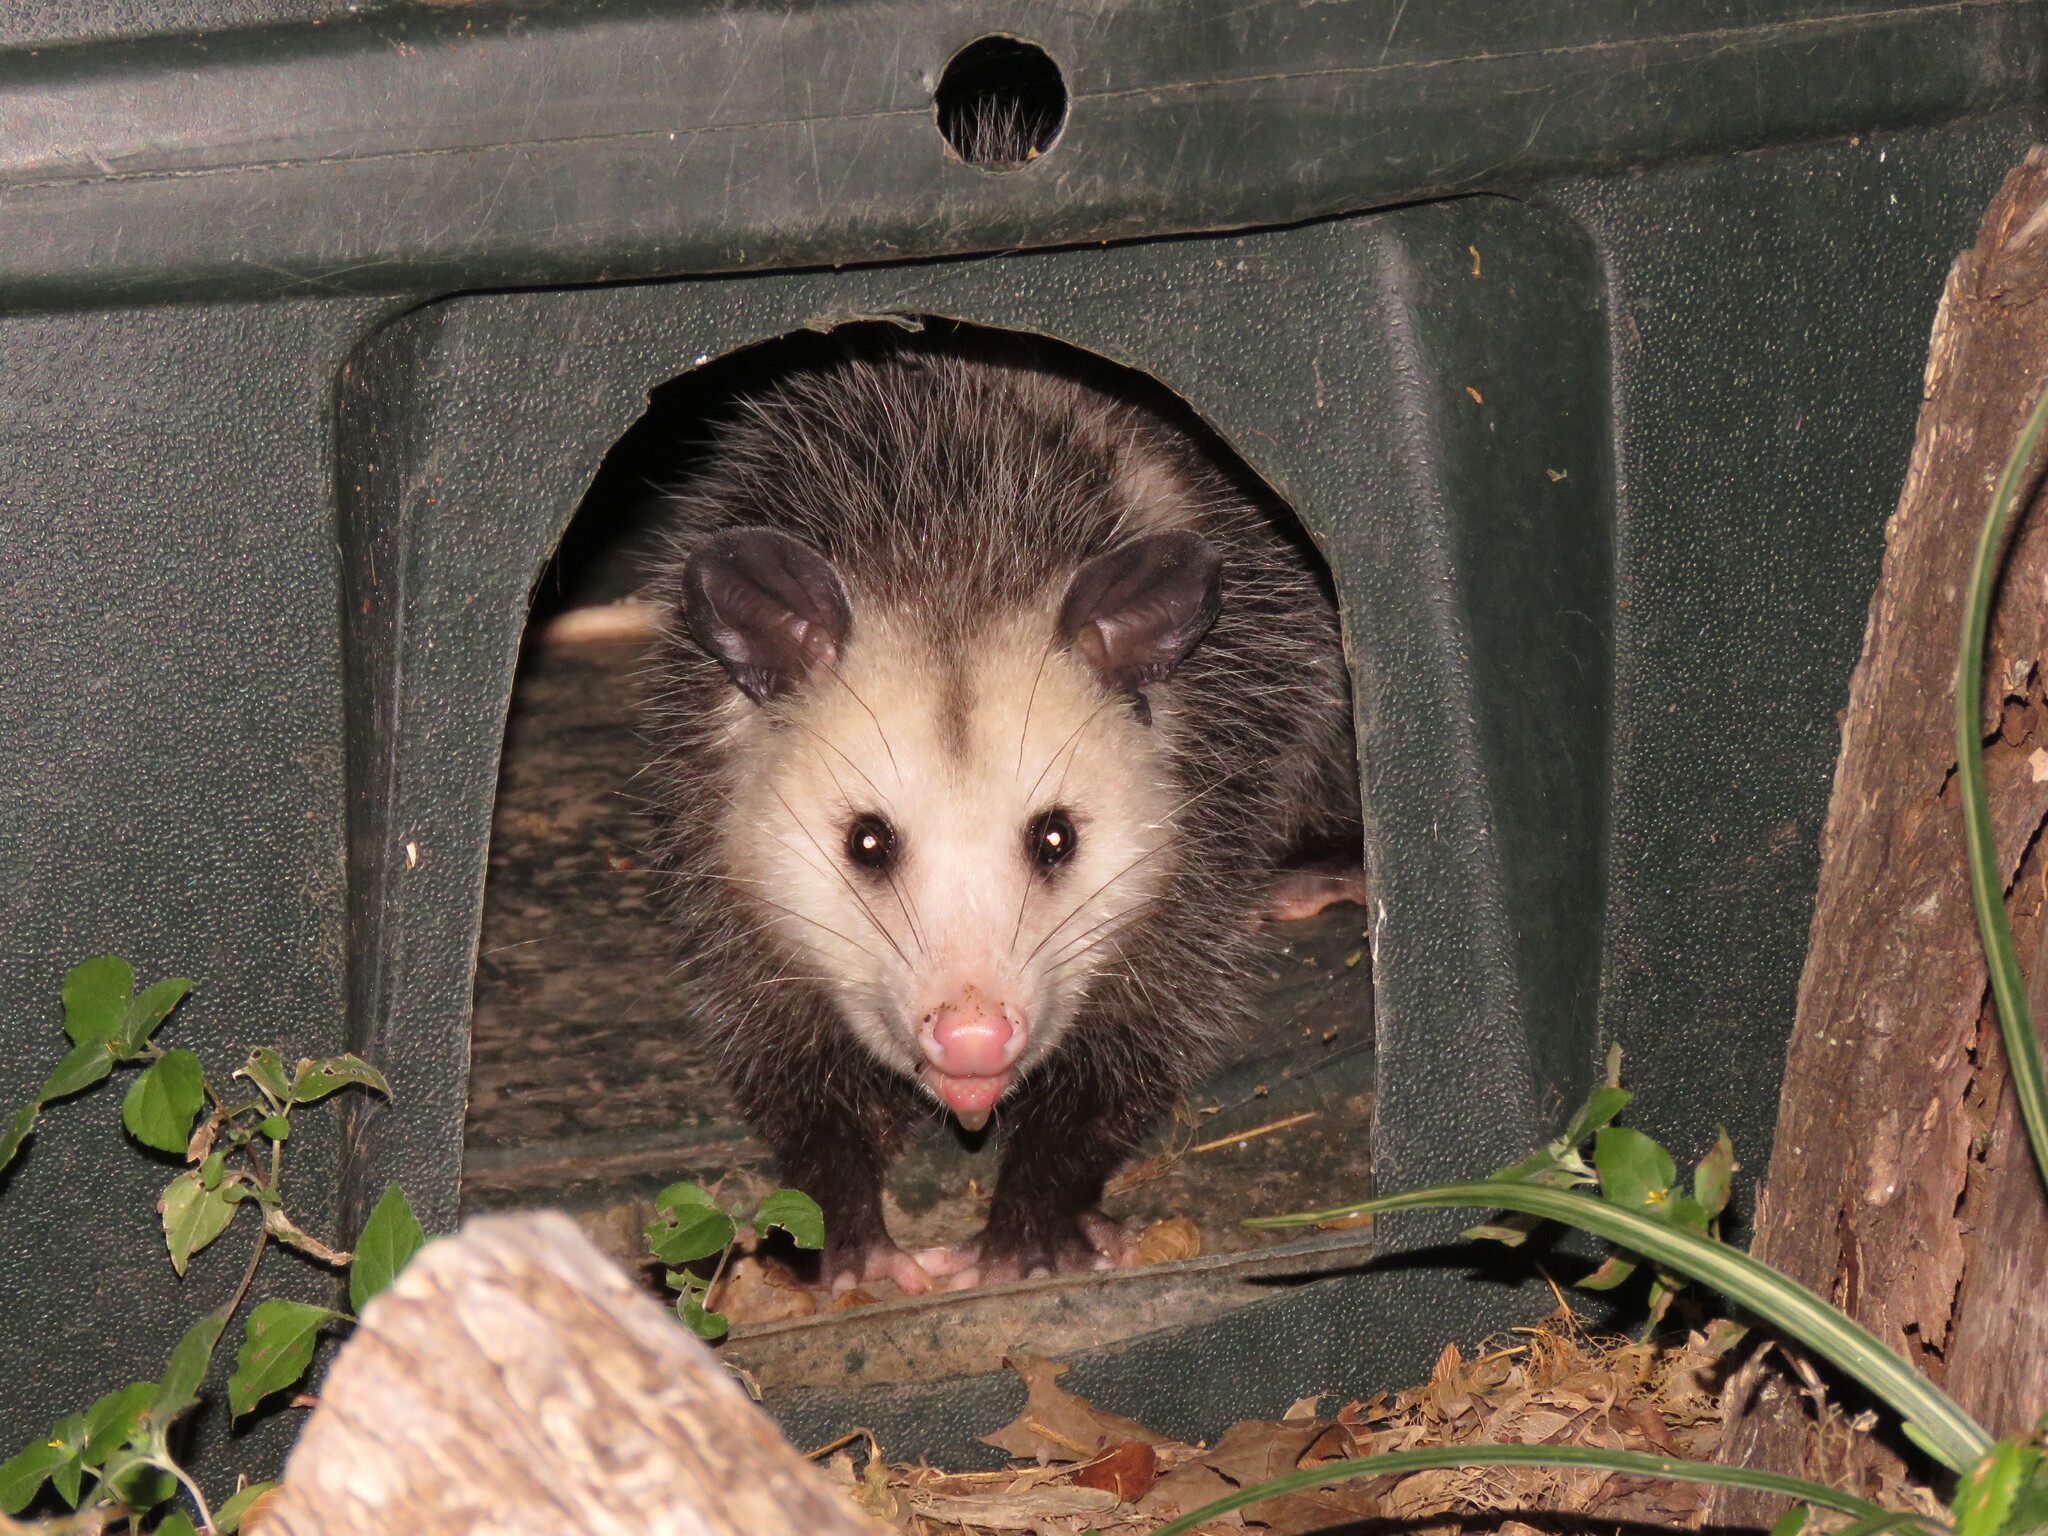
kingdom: Animalia
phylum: Chordata
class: Mammalia
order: Didelphimorphia
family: Didelphidae
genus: Didelphis
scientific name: Didelphis virginiana
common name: Virginia opossum
